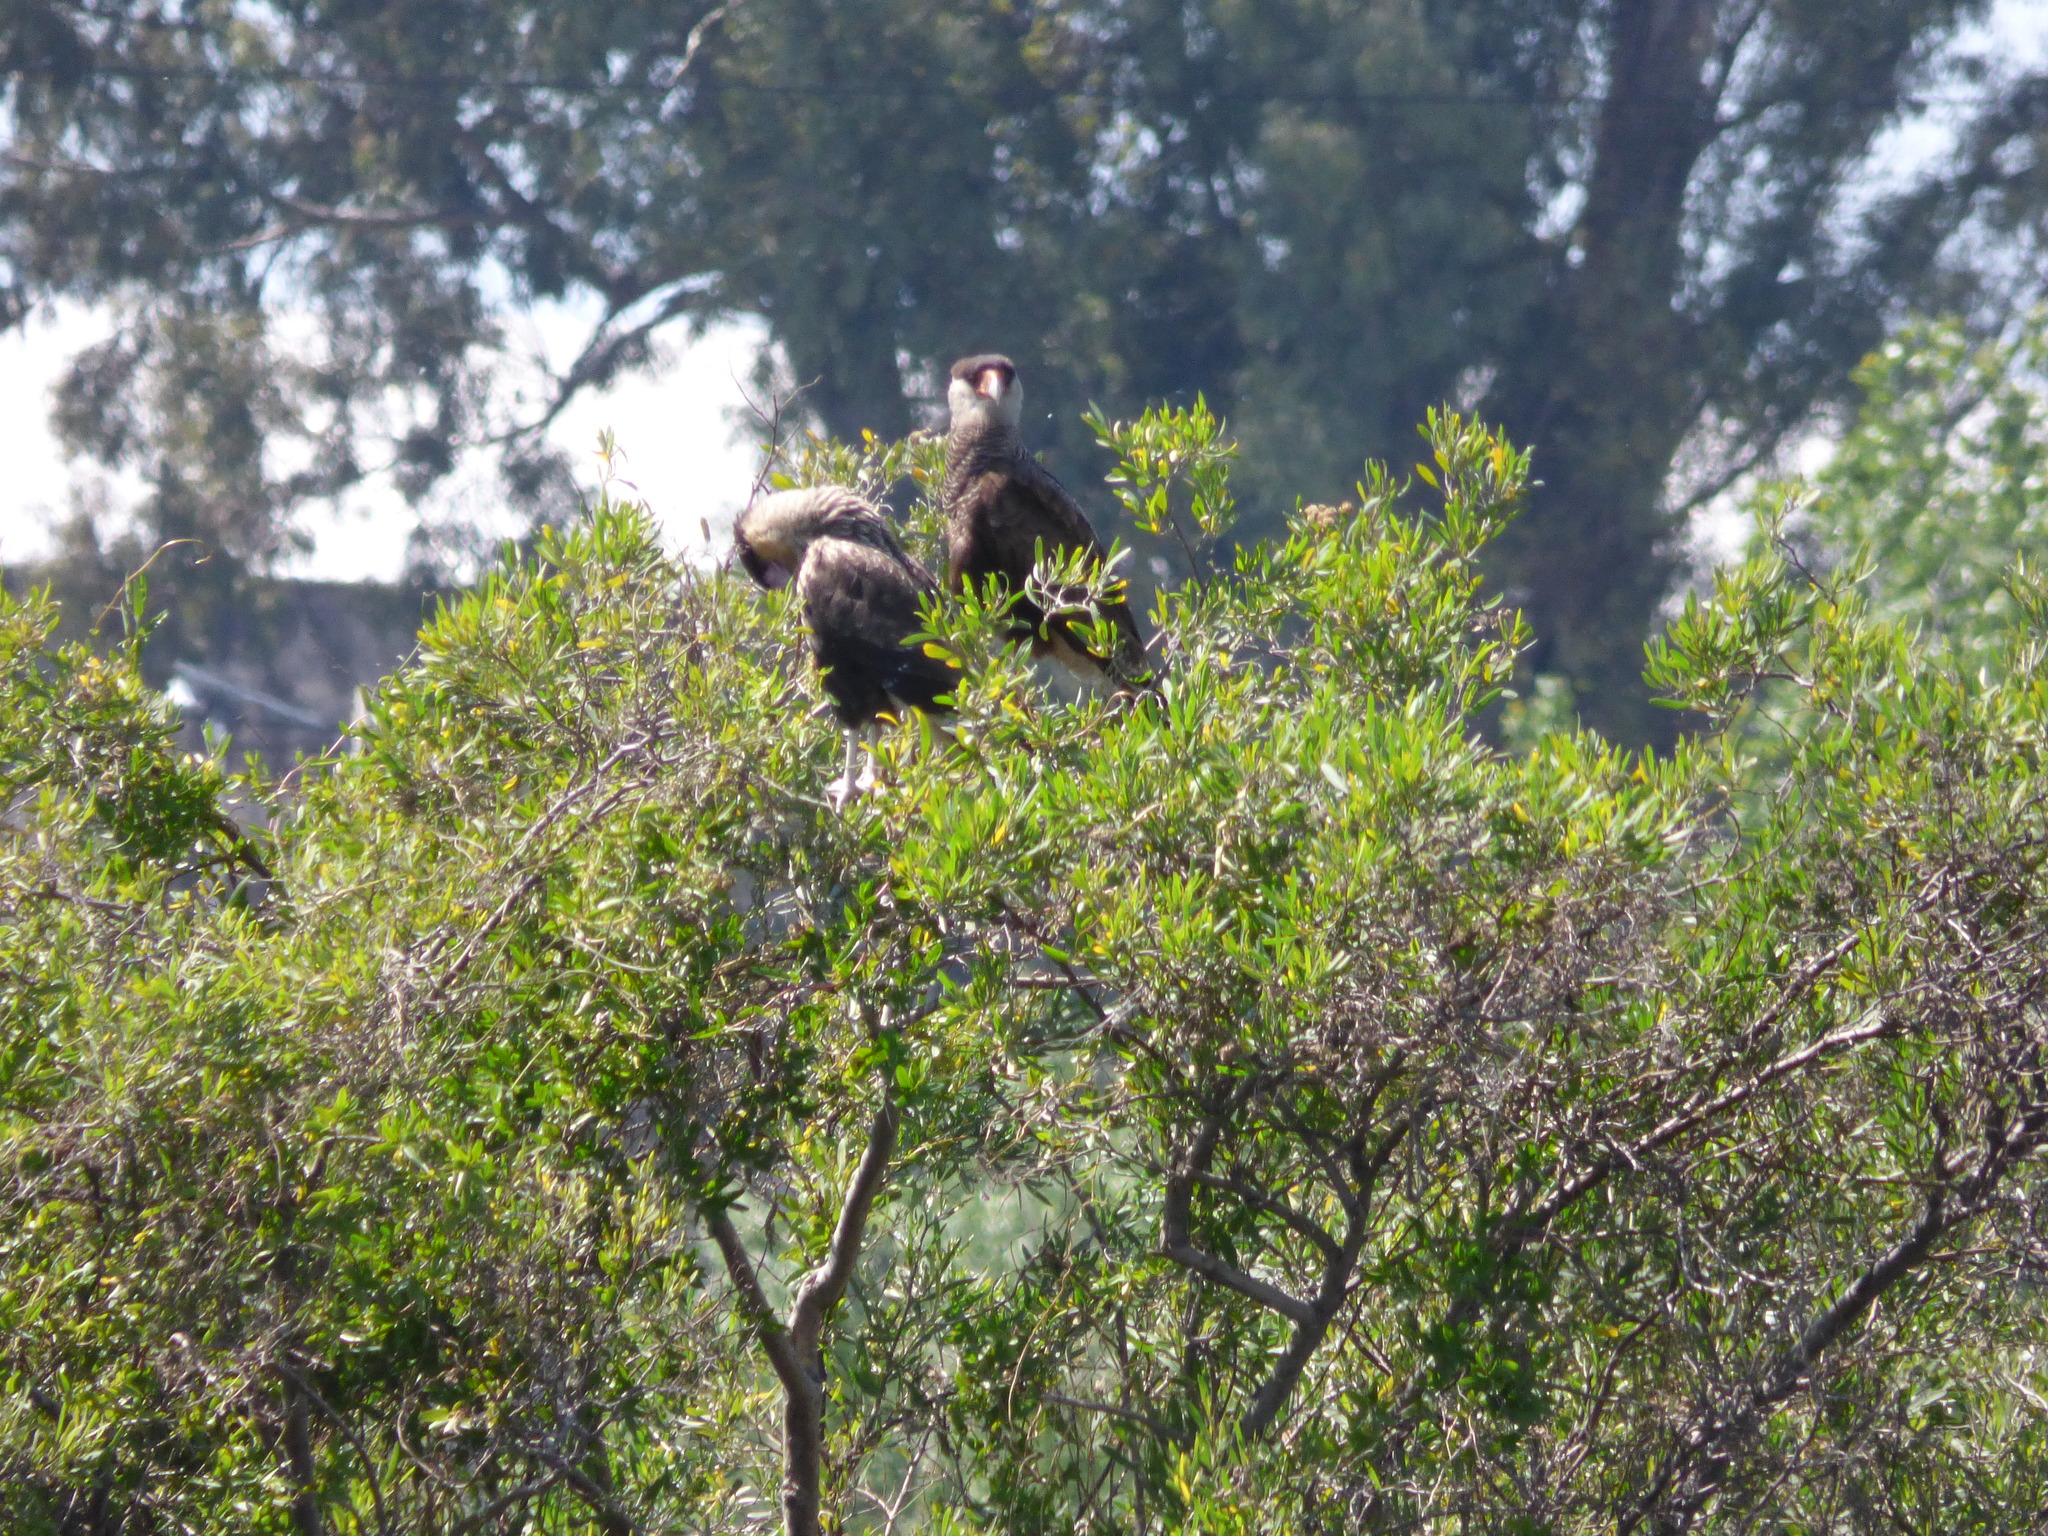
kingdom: Animalia
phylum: Chordata
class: Aves
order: Falconiformes
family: Falconidae
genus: Caracara
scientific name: Caracara plancus
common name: Southern caracara
